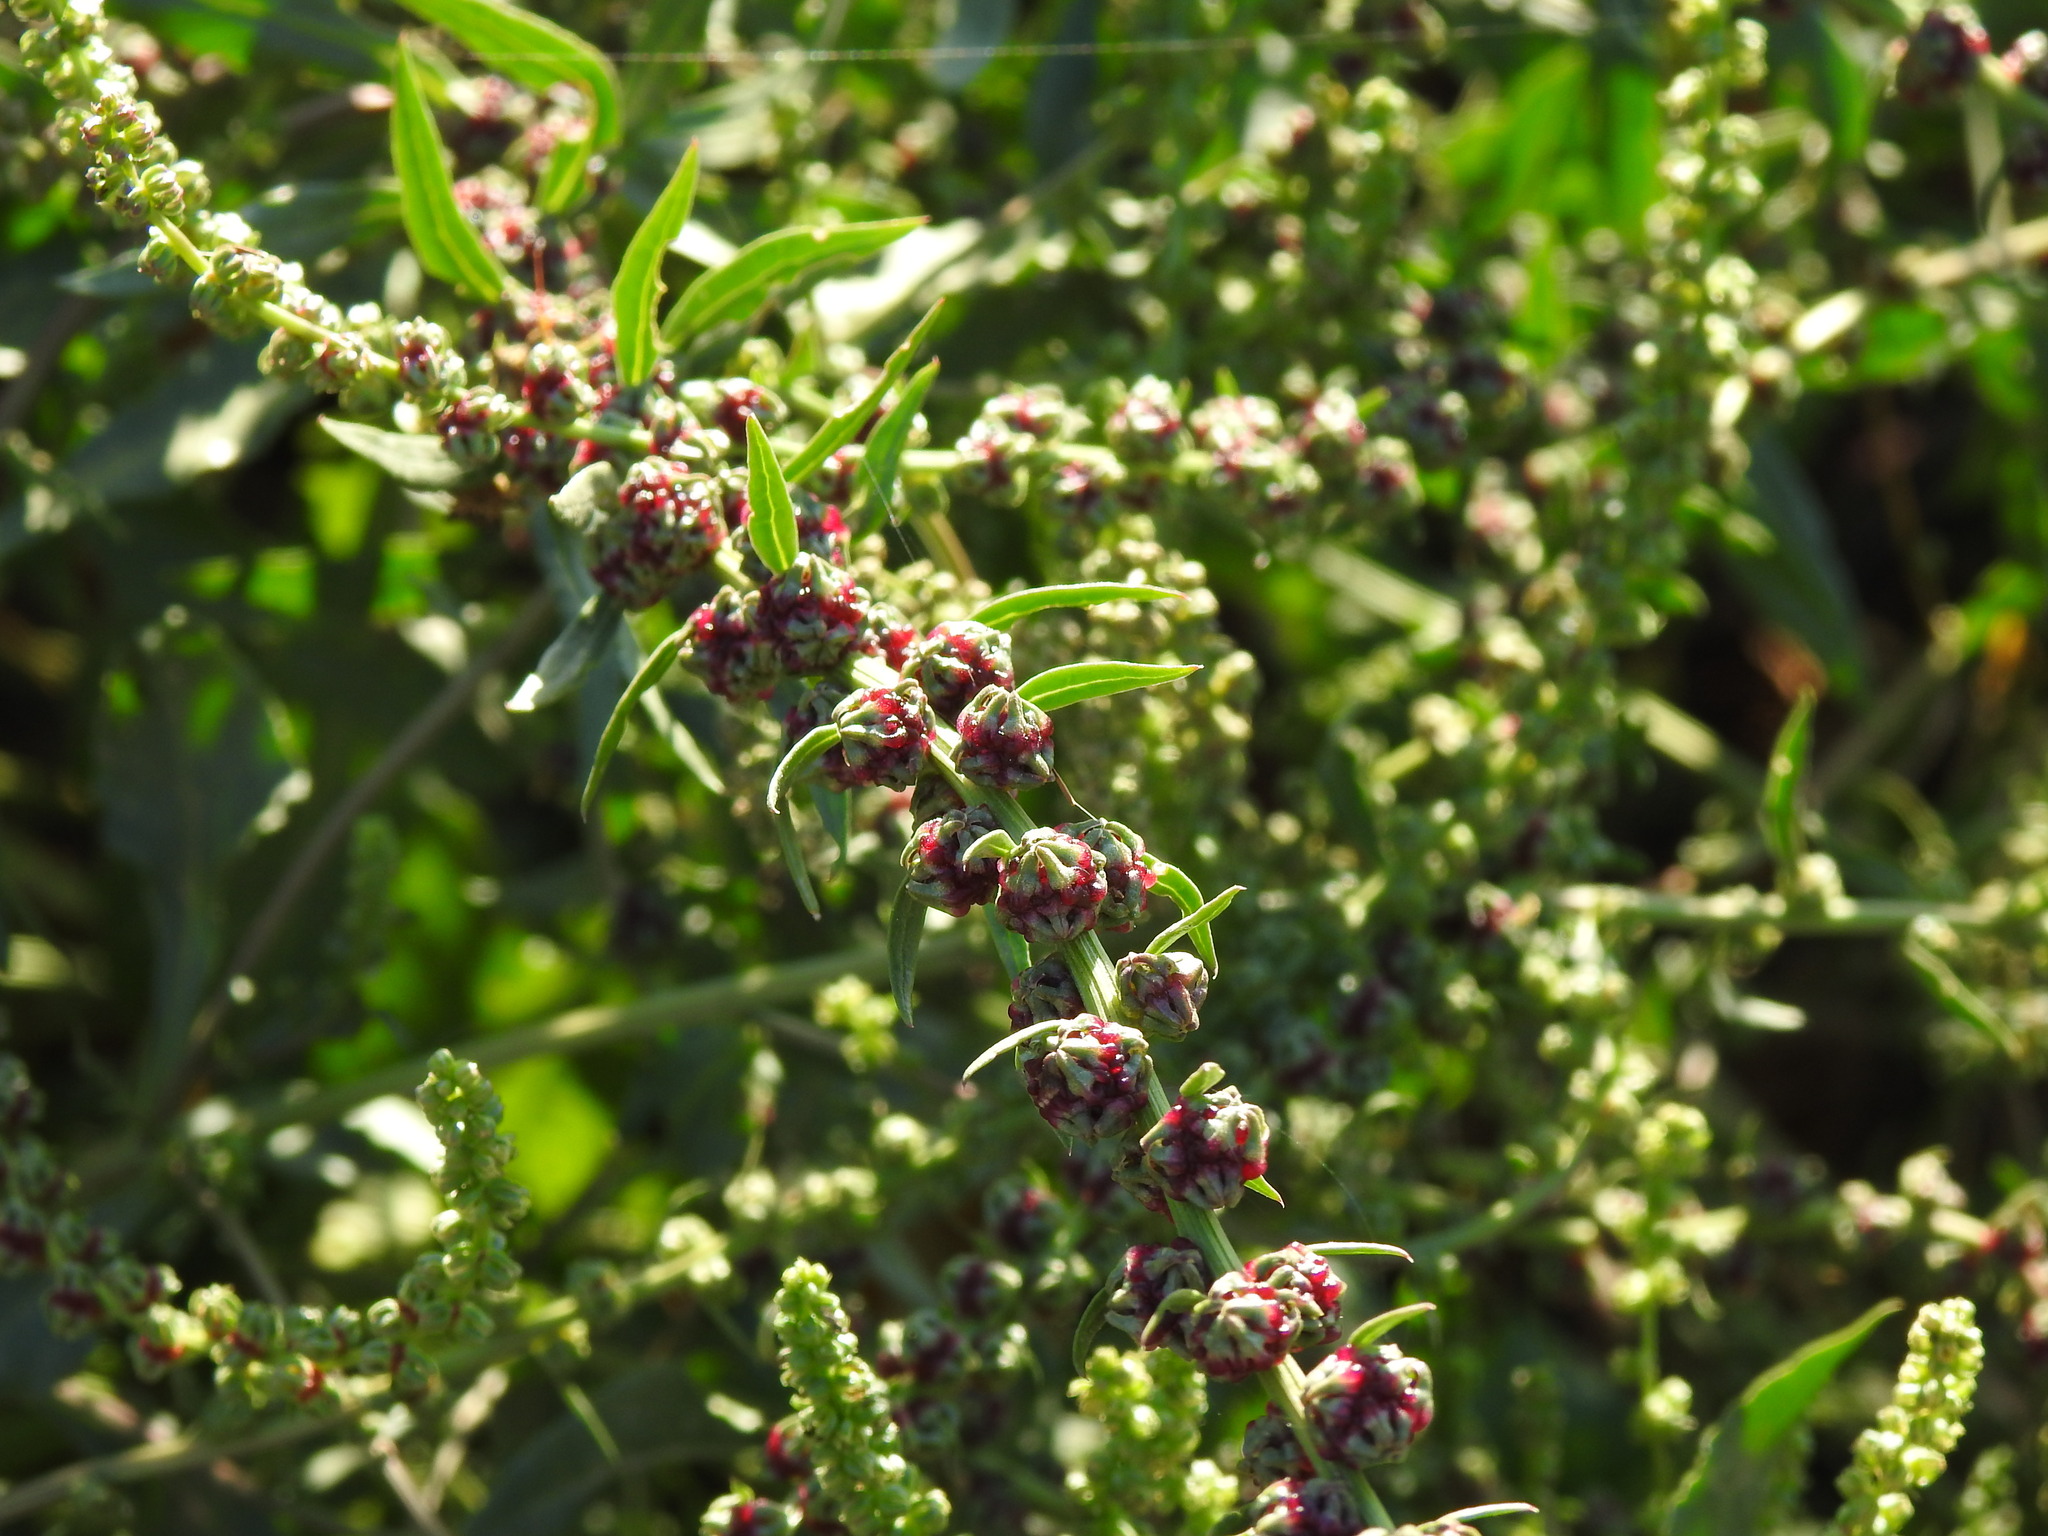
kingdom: Plantae
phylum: Tracheophyta
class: Magnoliopsida
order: Caryophyllales
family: Amaranthaceae
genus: Beta
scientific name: Beta macrocarpa
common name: Beet
